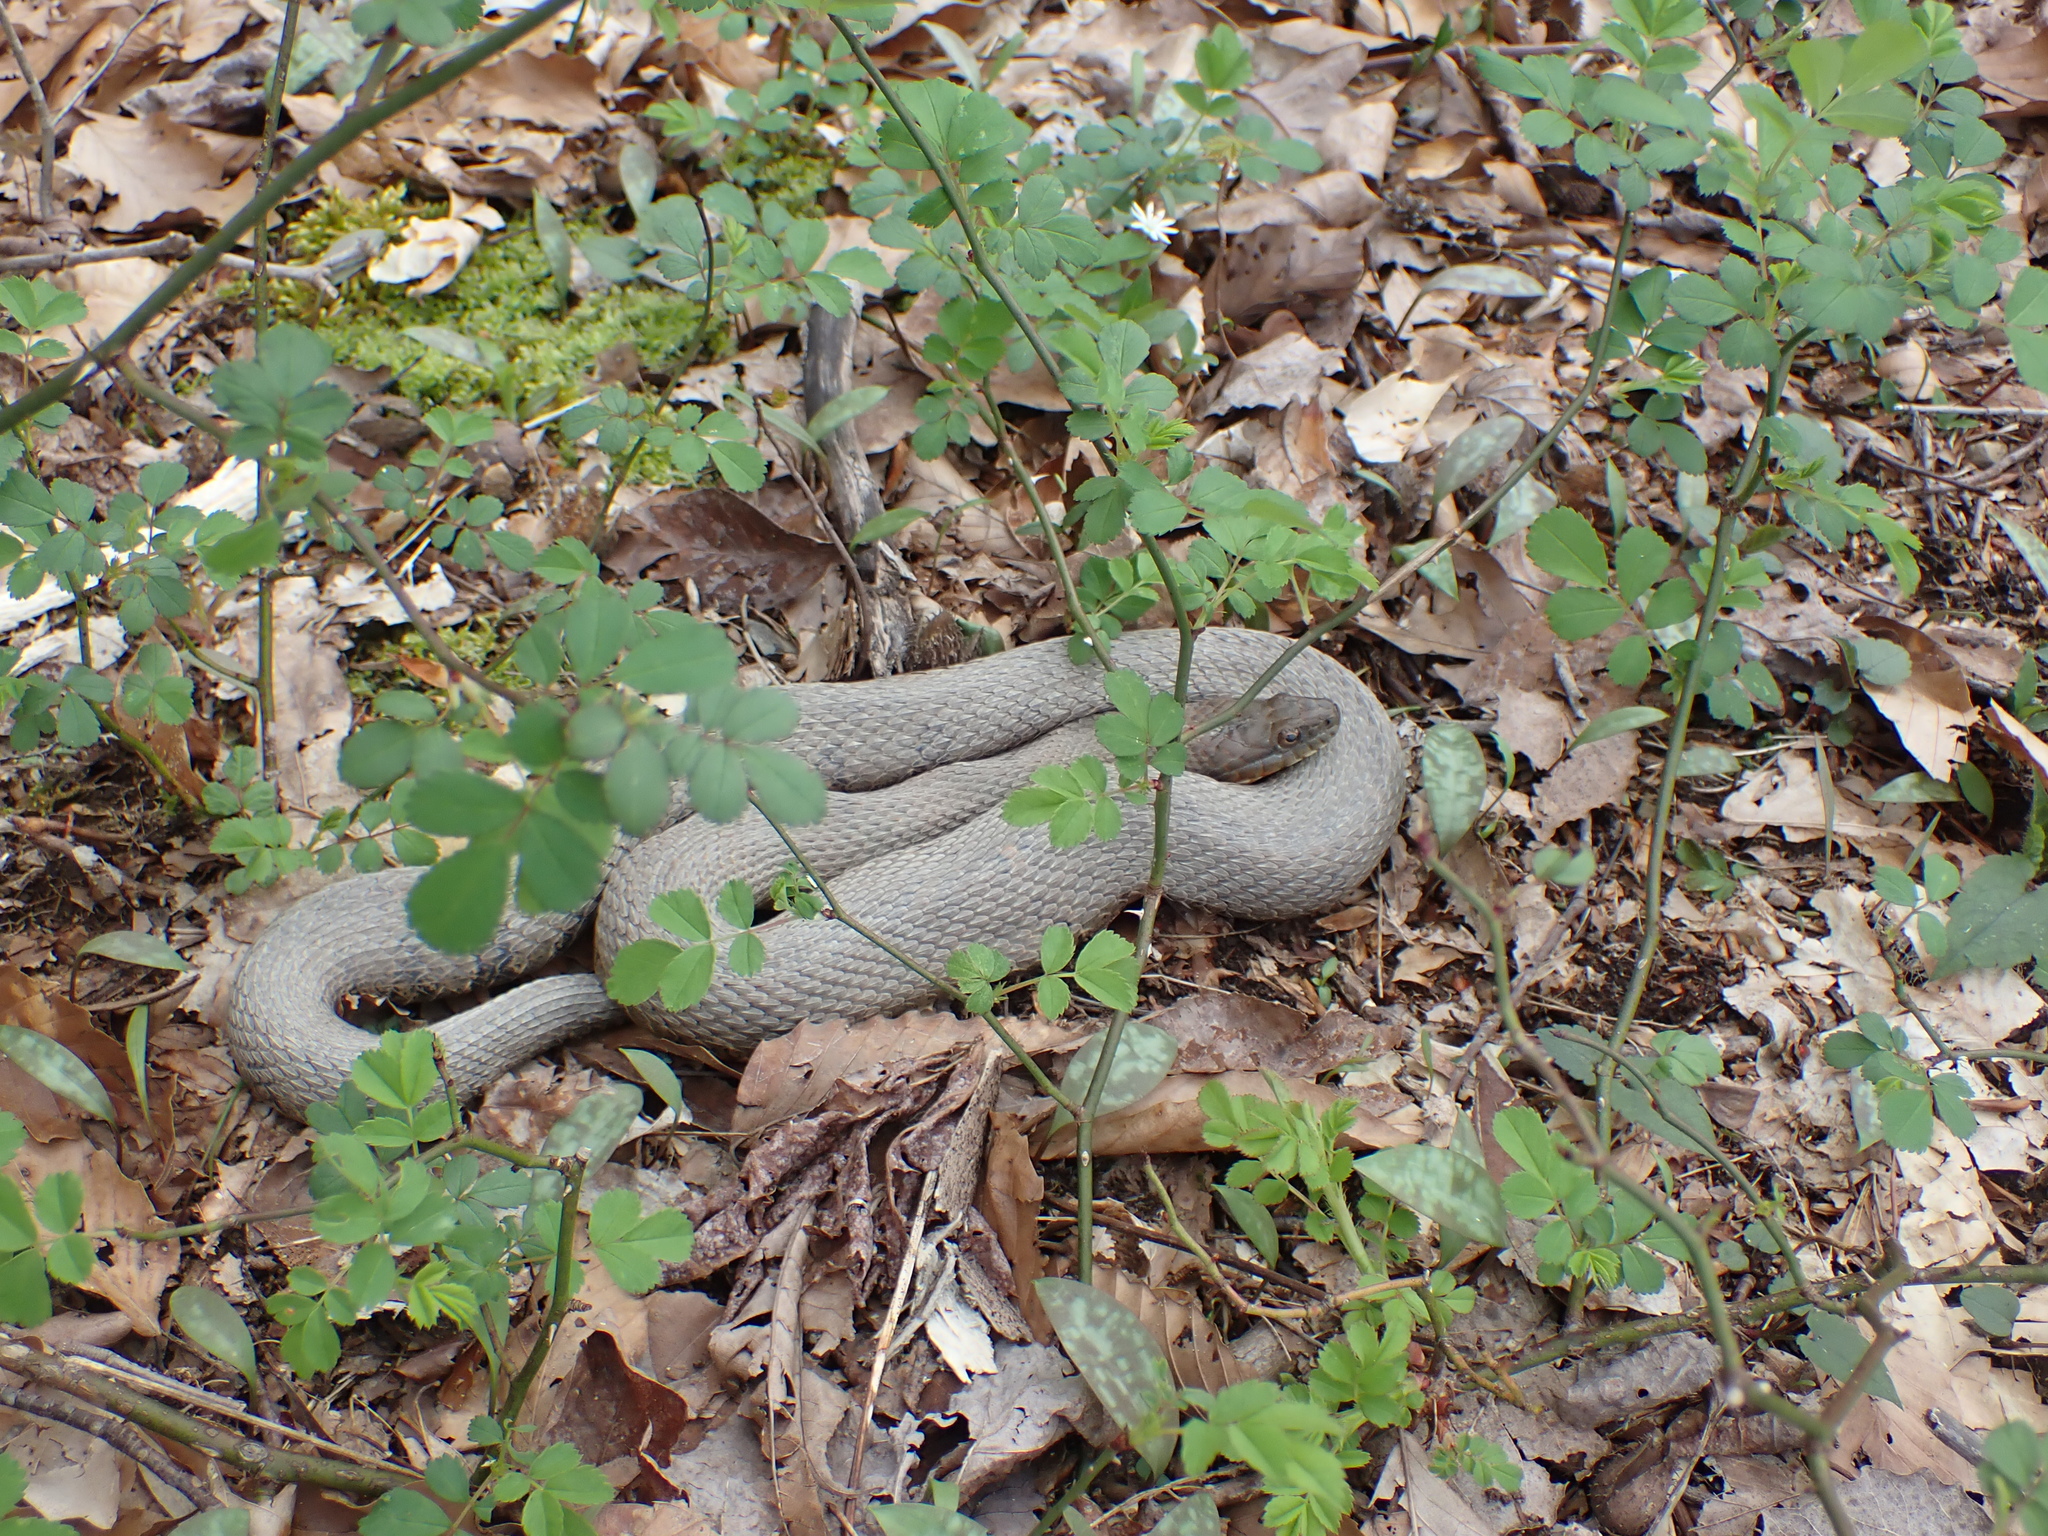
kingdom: Animalia
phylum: Chordata
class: Squamata
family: Colubridae
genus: Nerodia
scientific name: Nerodia sipedon
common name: Northern water snake
